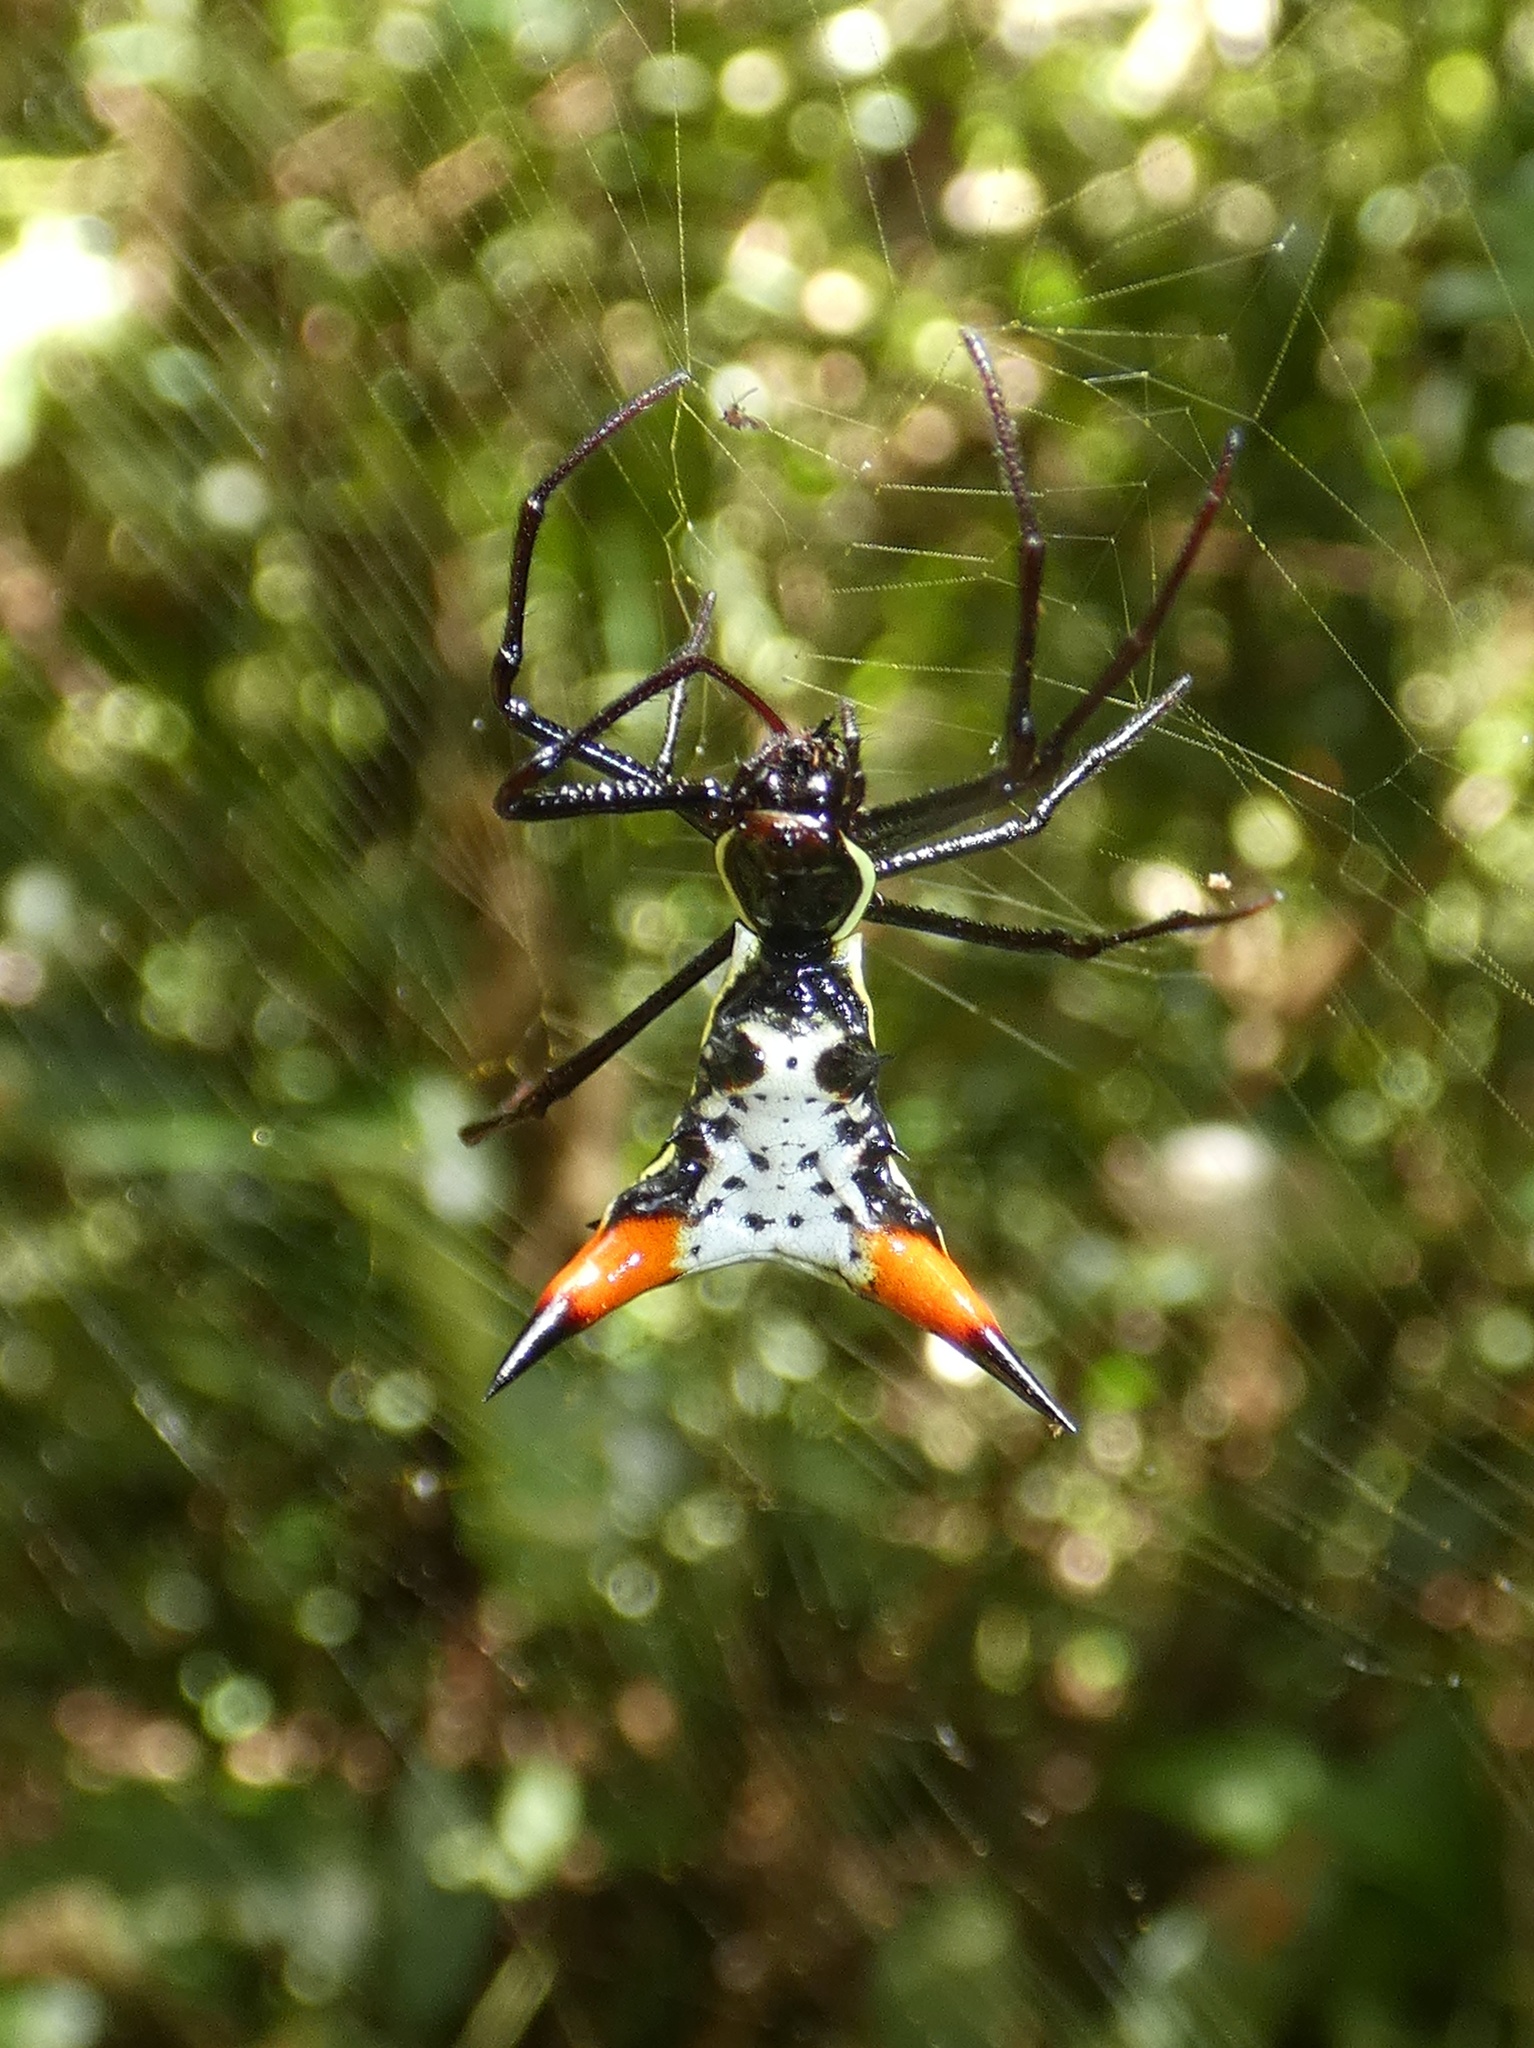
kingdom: Animalia
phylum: Arthropoda
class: Arachnida
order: Araneae
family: Araneidae
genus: Micrathena
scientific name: Micrathena schreibersi
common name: Orb weavers
